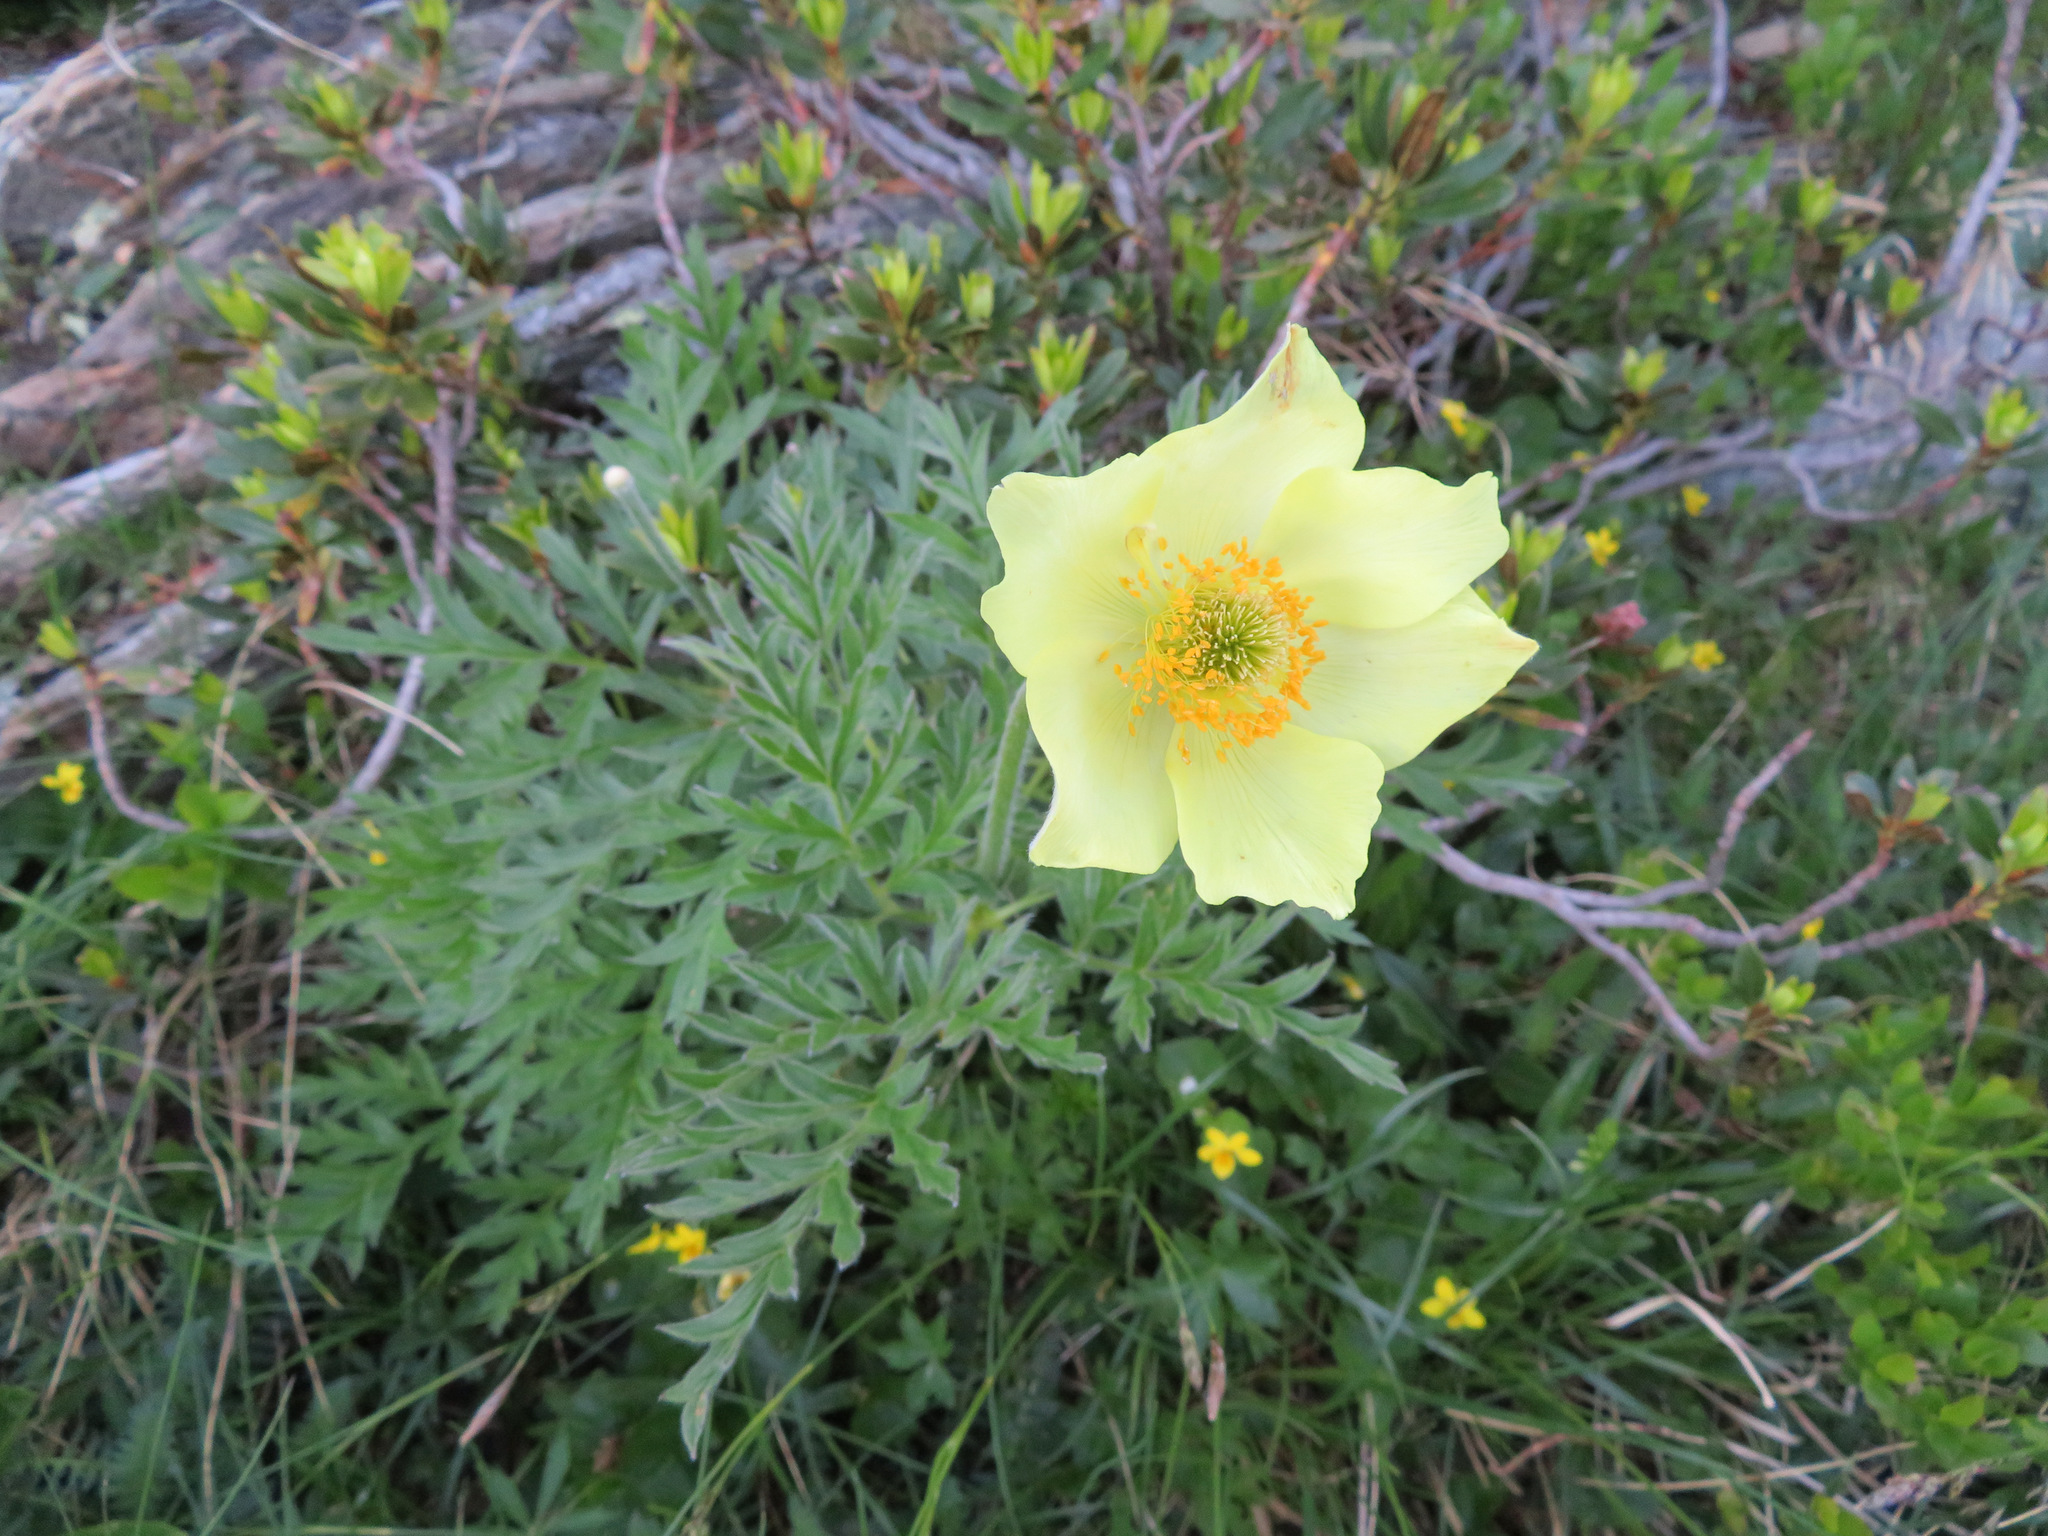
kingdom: Plantae
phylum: Tracheophyta
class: Magnoliopsida
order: Ranunculales
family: Ranunculaceae
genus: Pulsatilla
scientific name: Pulsatilla alpina
